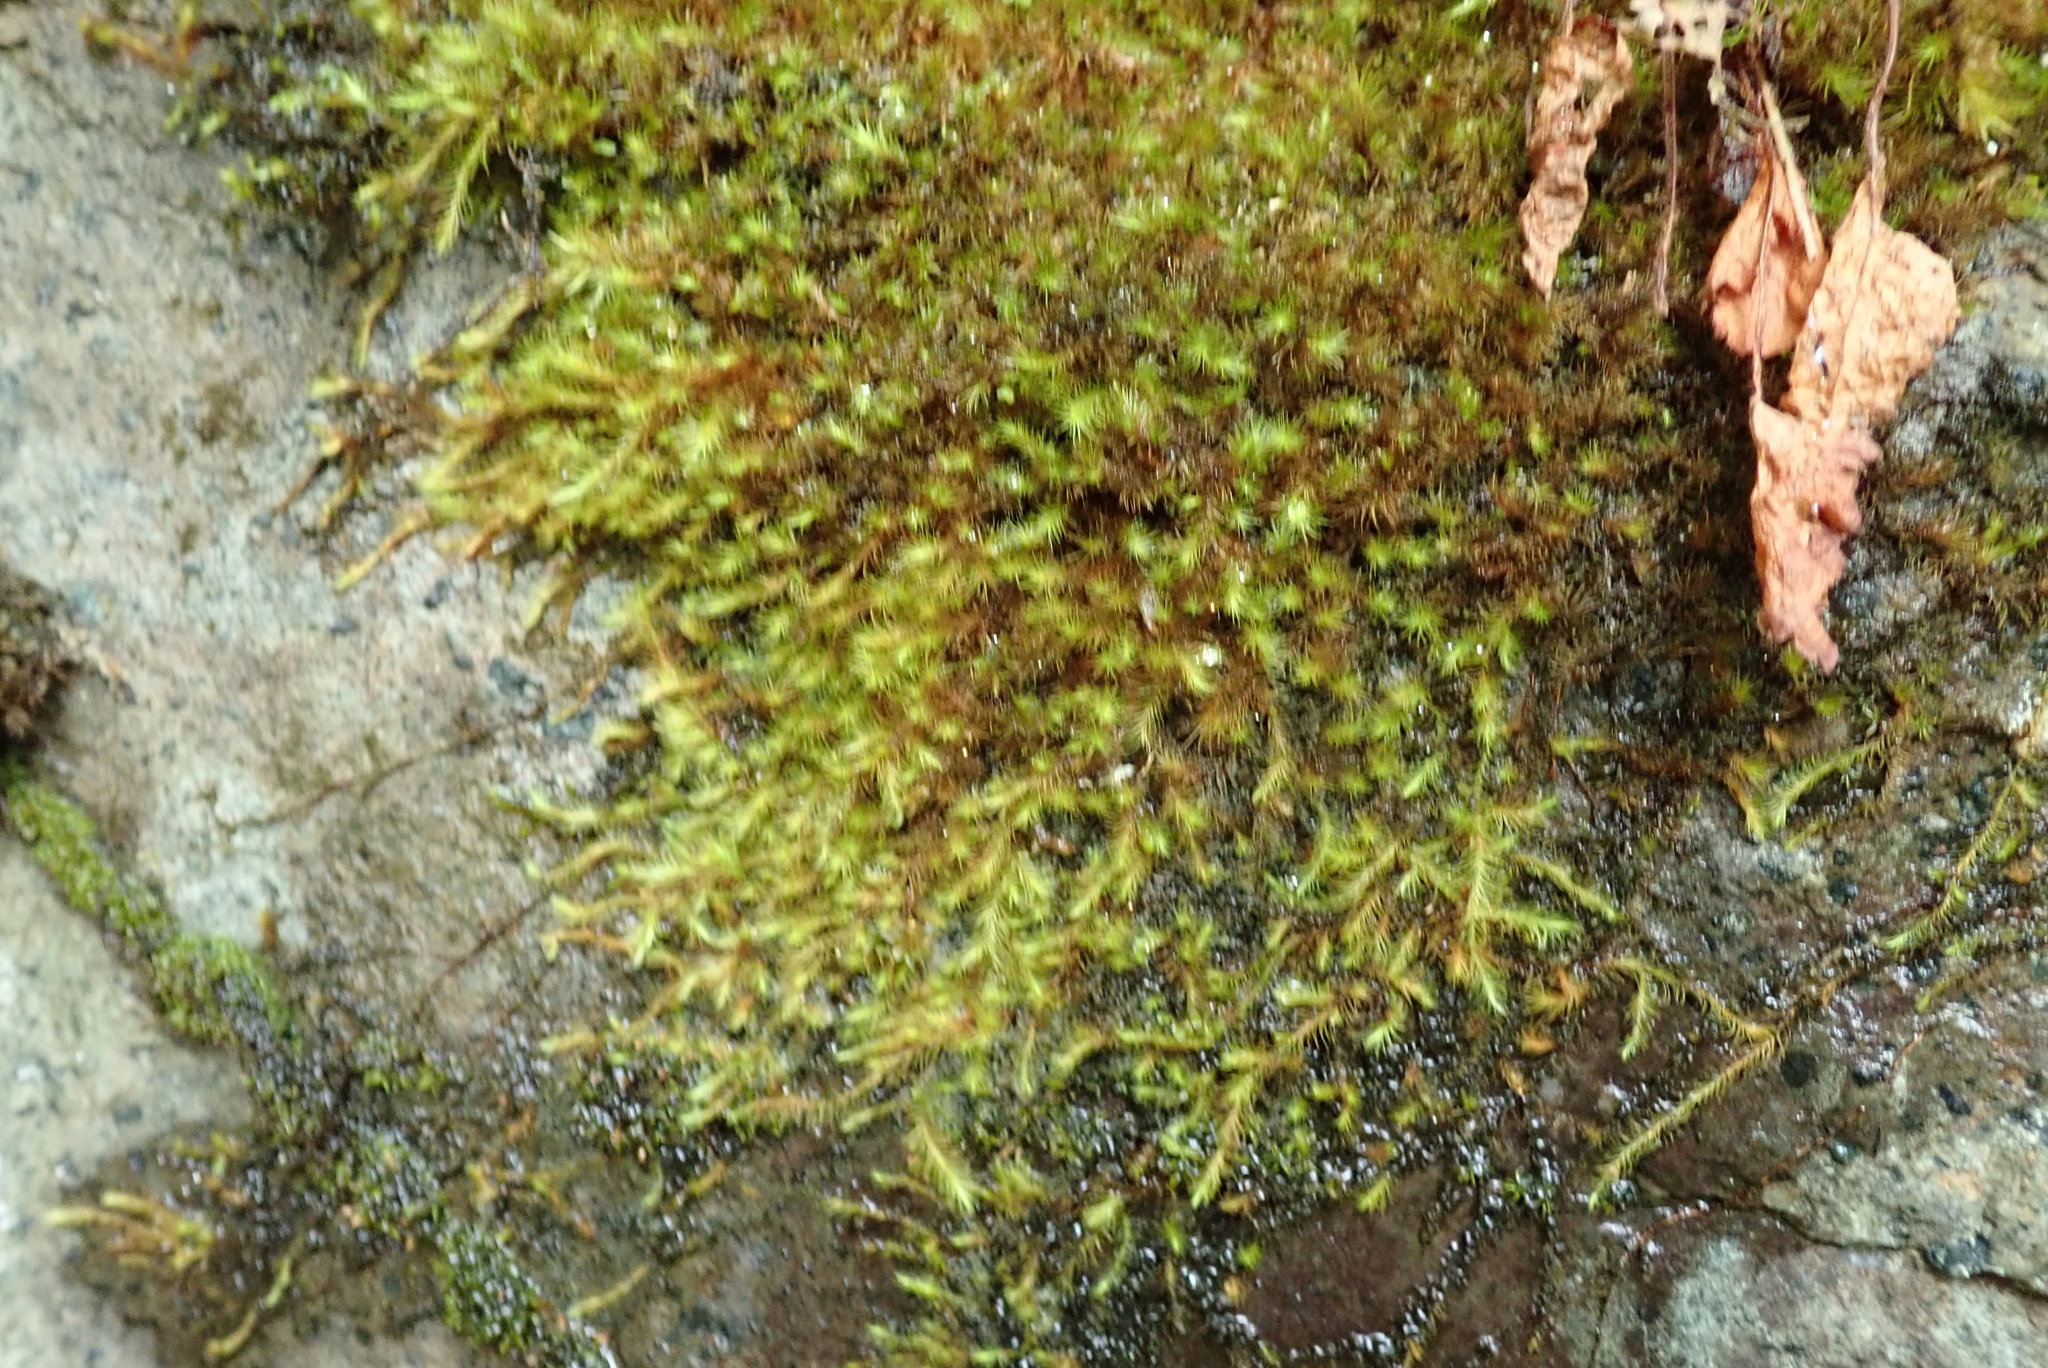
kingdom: Plantae
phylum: Bryophyta
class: Bryopsida
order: Bartramiales
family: Bartramiaceae
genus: Anacolia
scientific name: Anacolia menziesii
